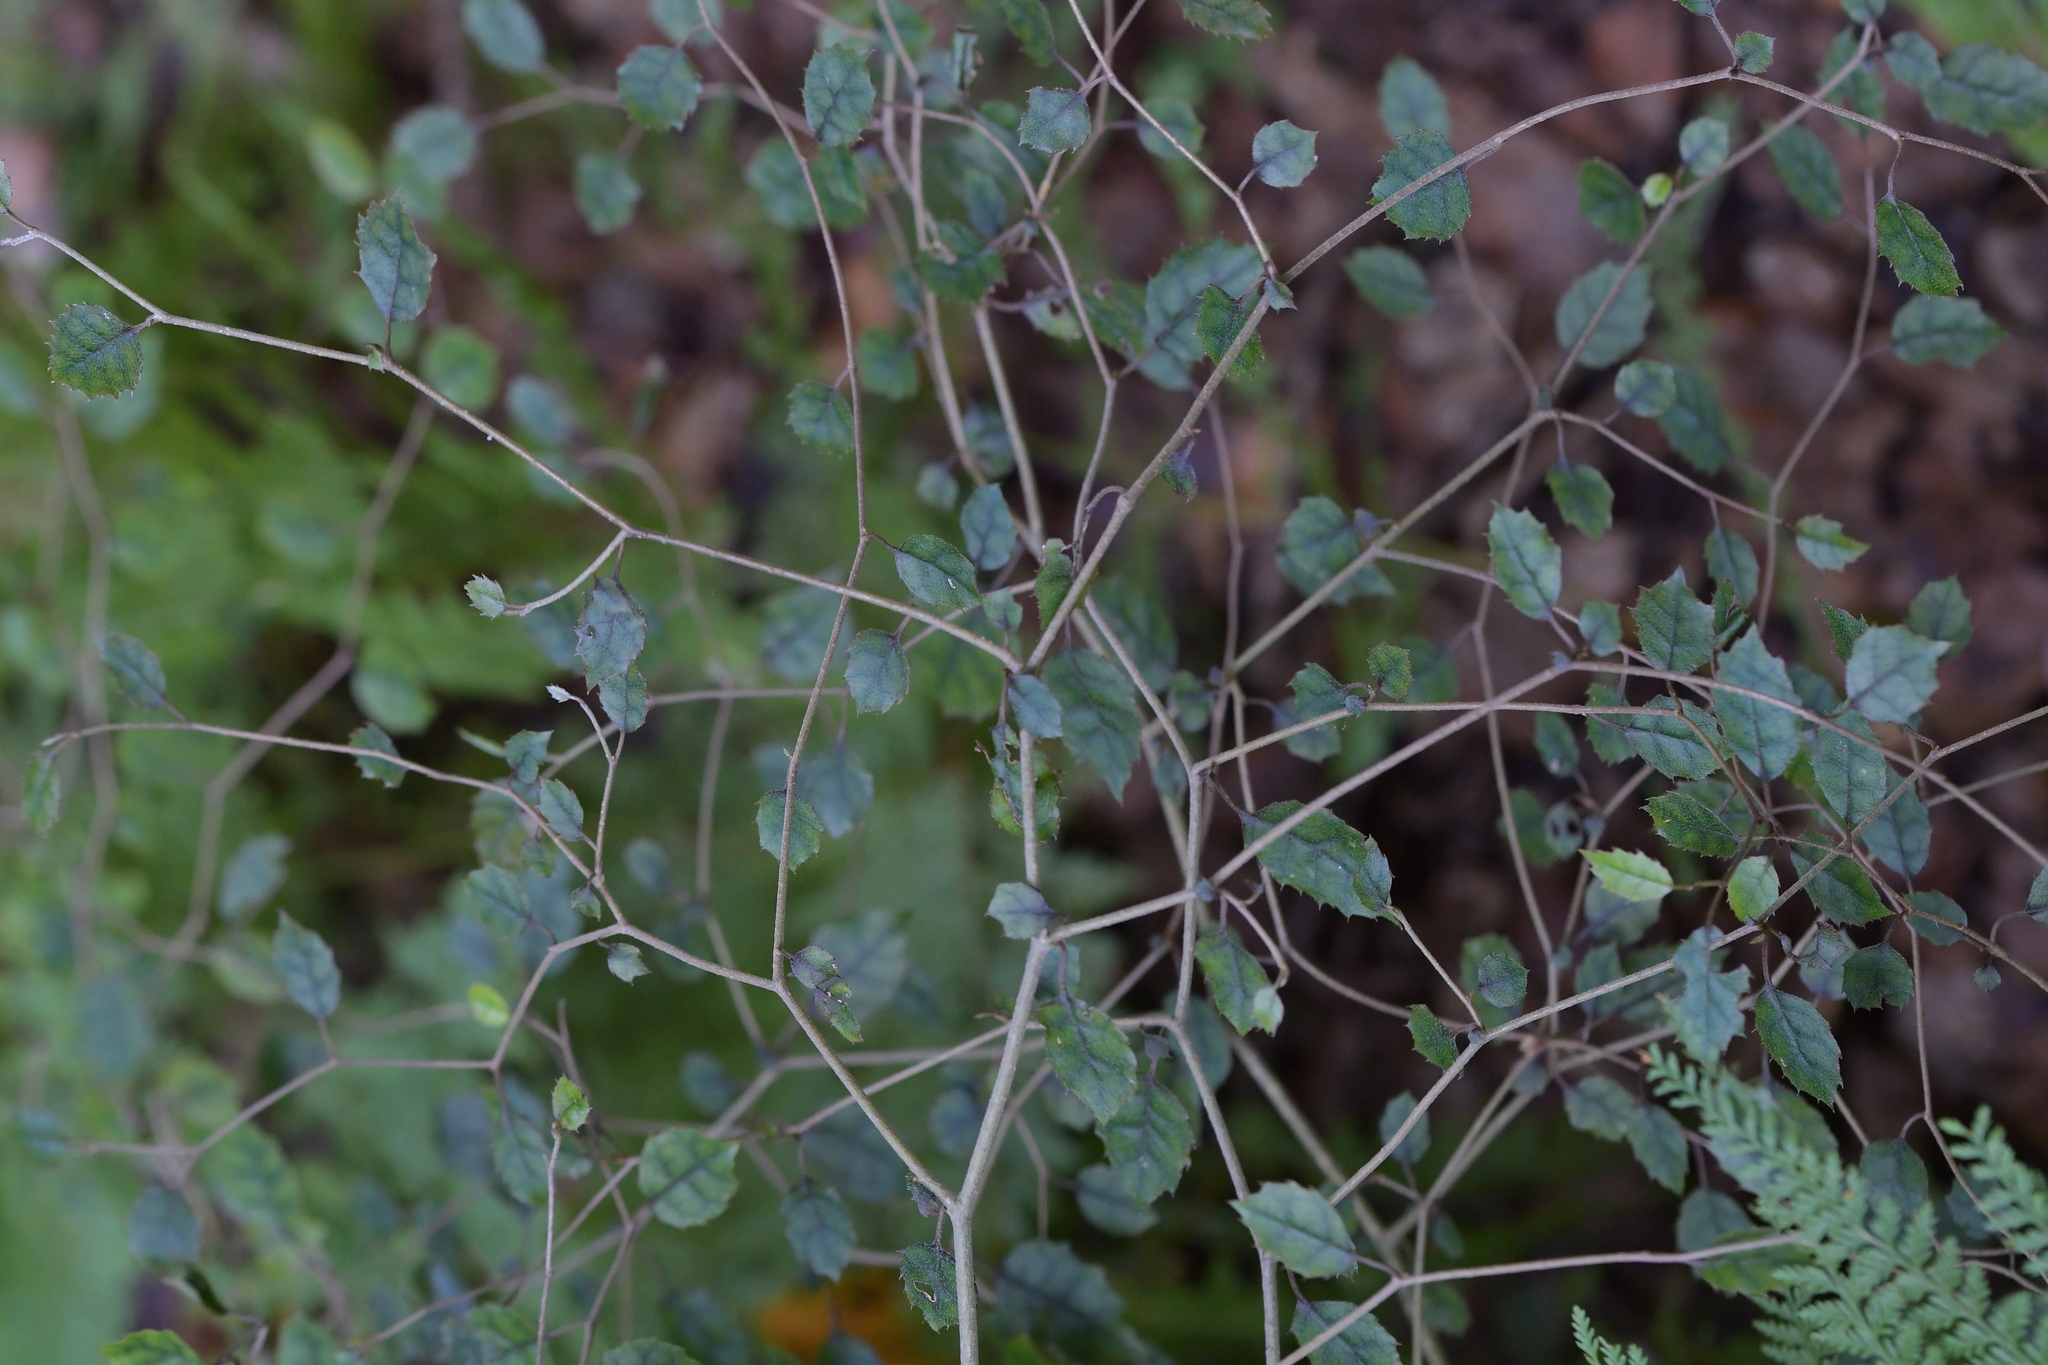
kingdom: Plantae
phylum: Tracheophyta
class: Magnoliopsida
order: Asterales
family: Rousseaceae
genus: Carpodetus
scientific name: Carpodetus serratus
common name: White mapau
